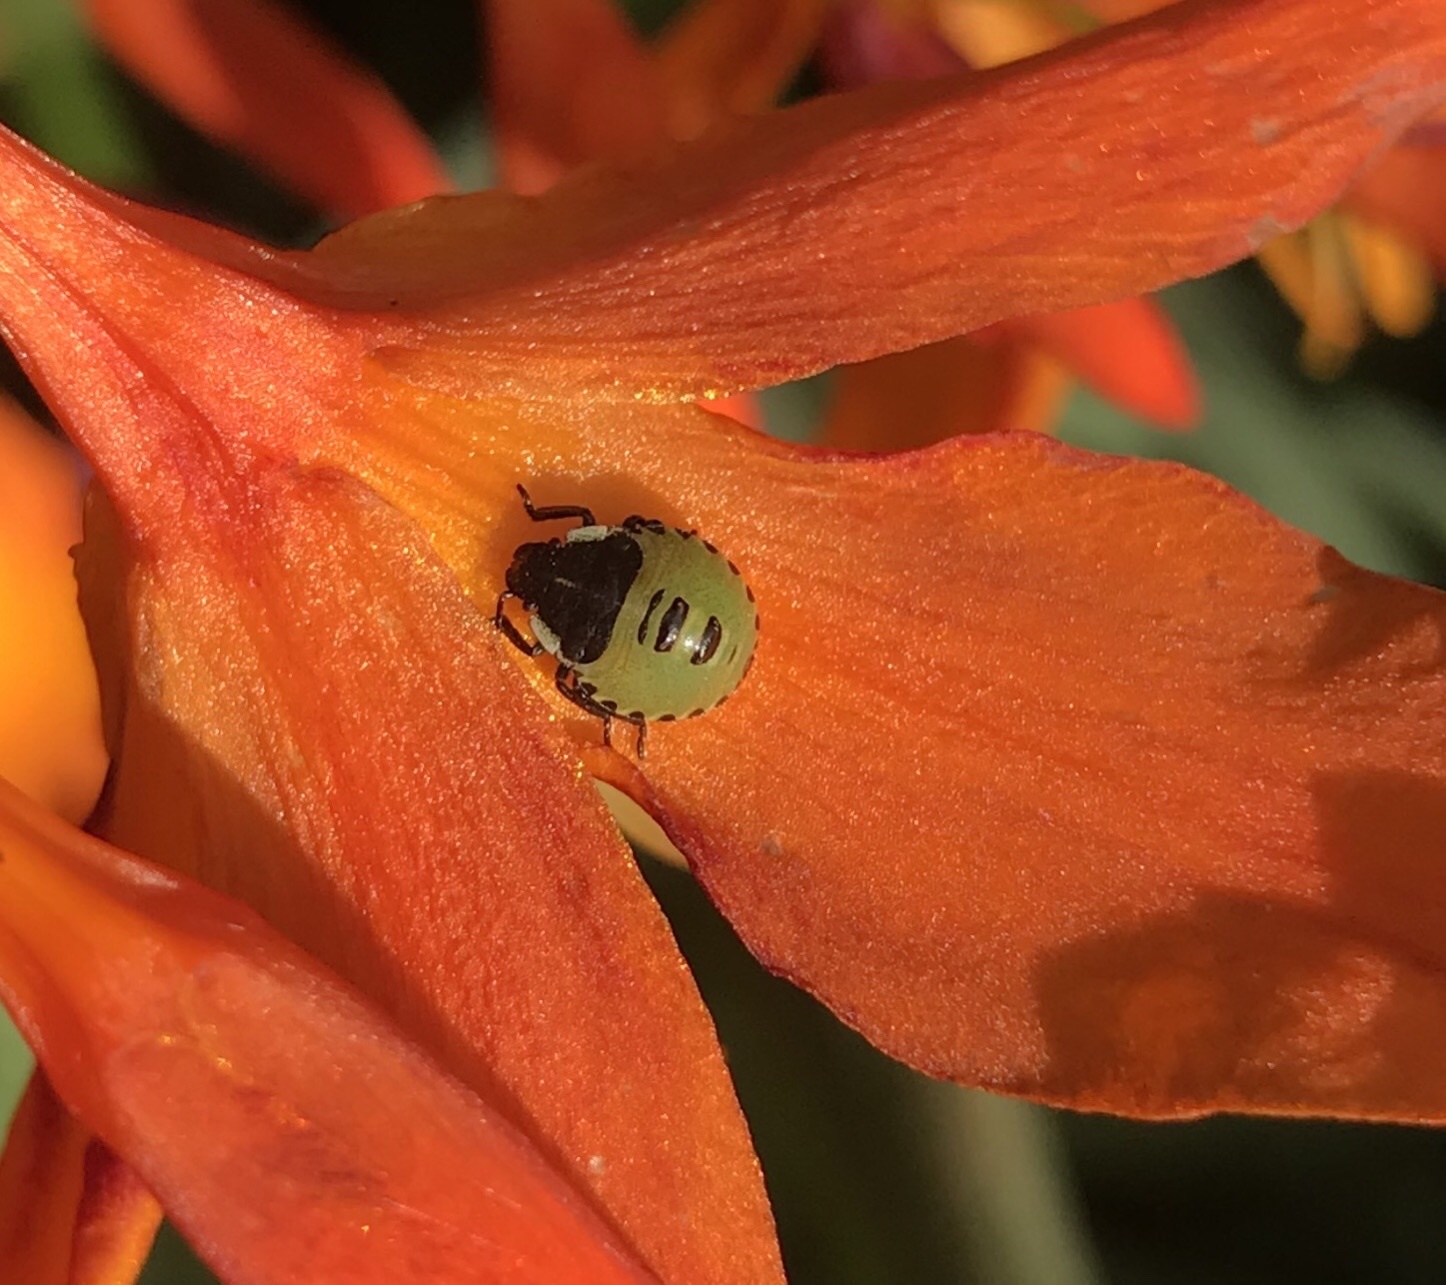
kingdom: Animalia
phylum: Arthropoda
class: Insecta
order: Hemiptera
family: Pentatomidae
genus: Palomena
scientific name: Palomena prasina
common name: Green shieldbug
